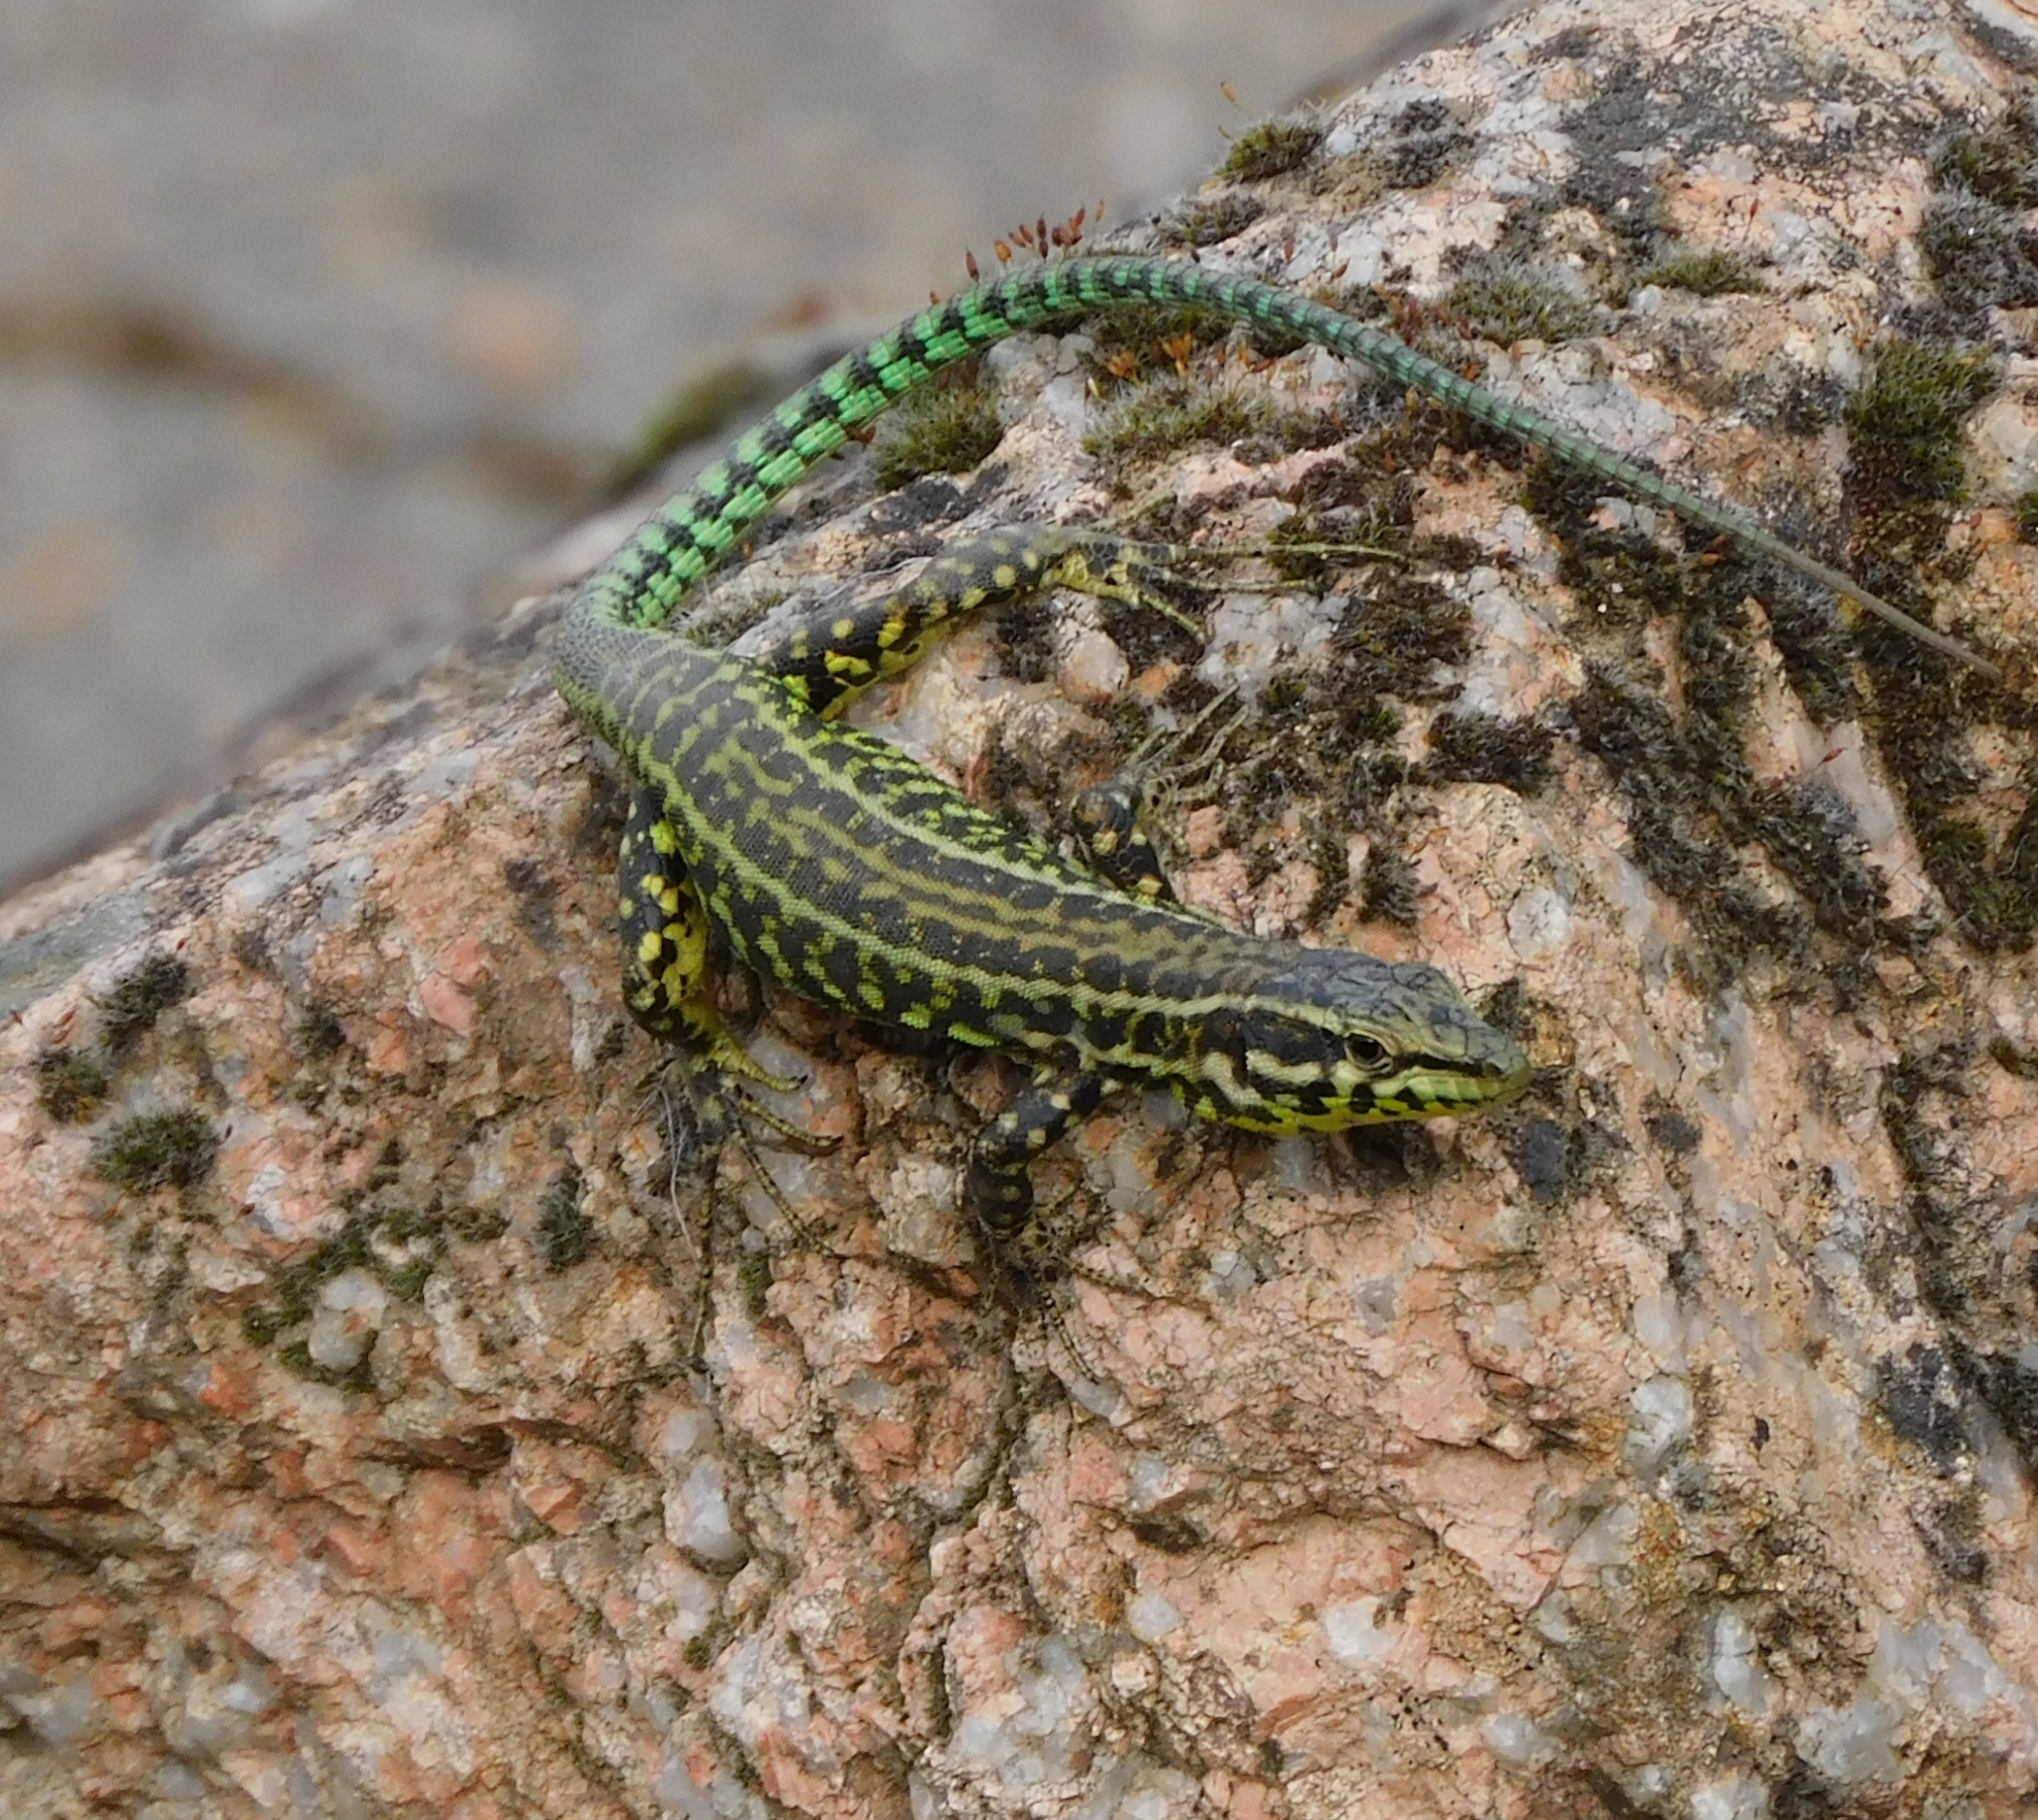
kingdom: Animalia
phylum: Chordata
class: Squamata
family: Lacertidae
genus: Podarcis
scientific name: Podarcis tiliguerta
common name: Tyrrhenian wall lizard
